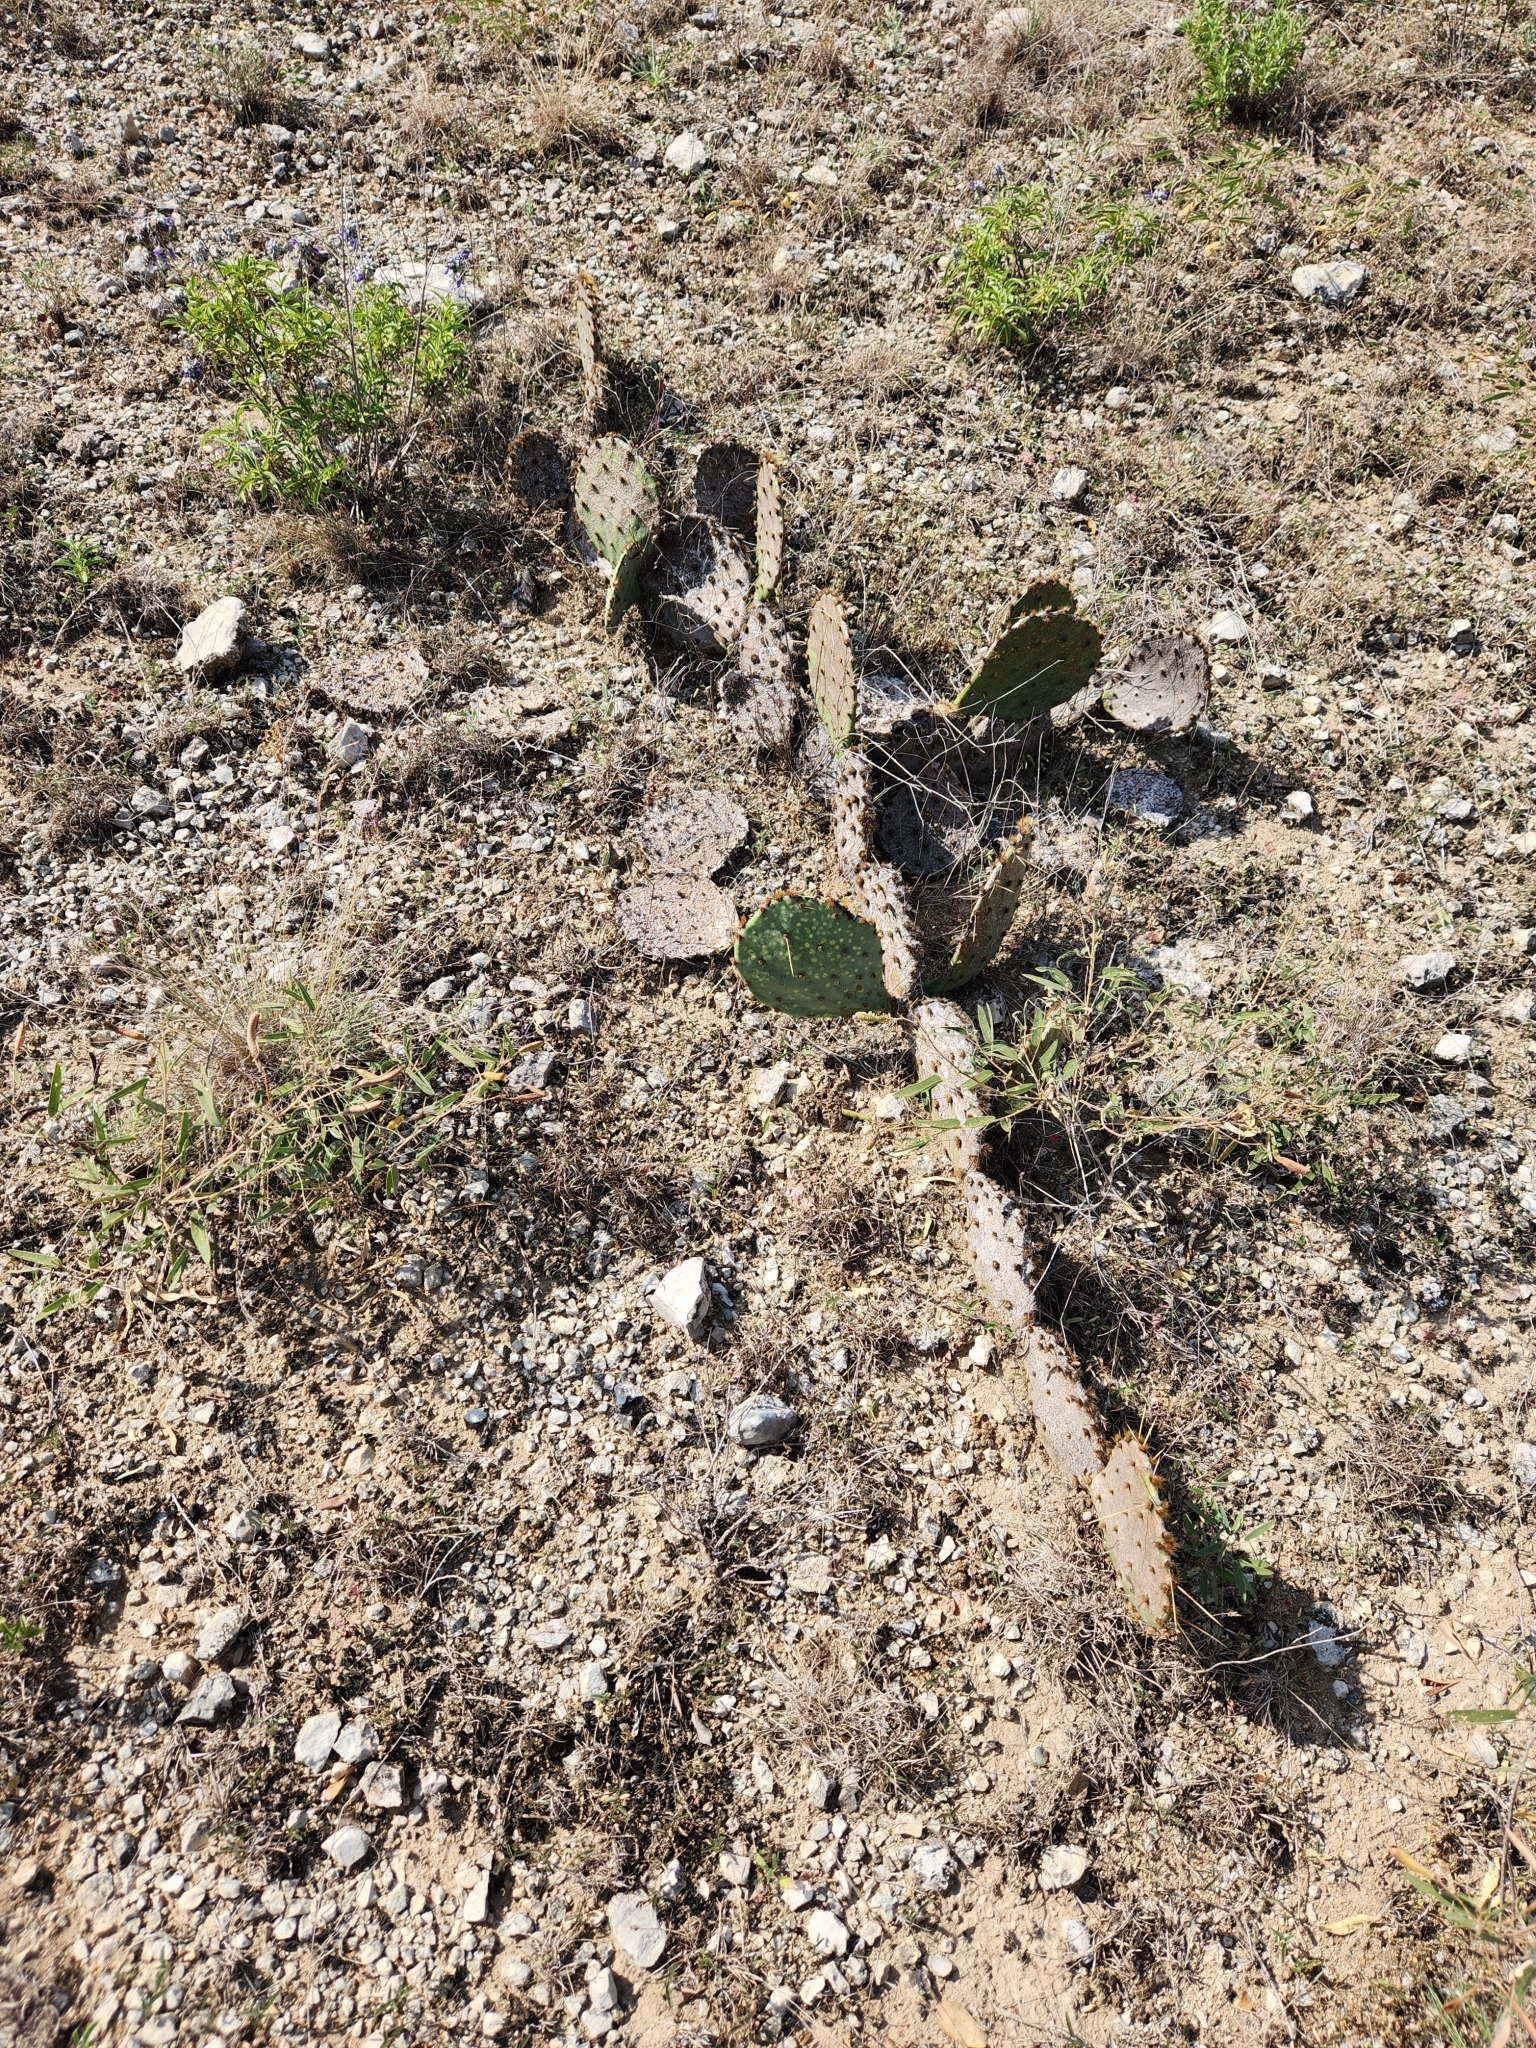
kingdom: Plantae
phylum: Tracheophyta
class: Magnoliopsida
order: Caryophyllales
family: Cactaceae
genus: Opuntia
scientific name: Opuntia engelmannii
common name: Cactus-apple
